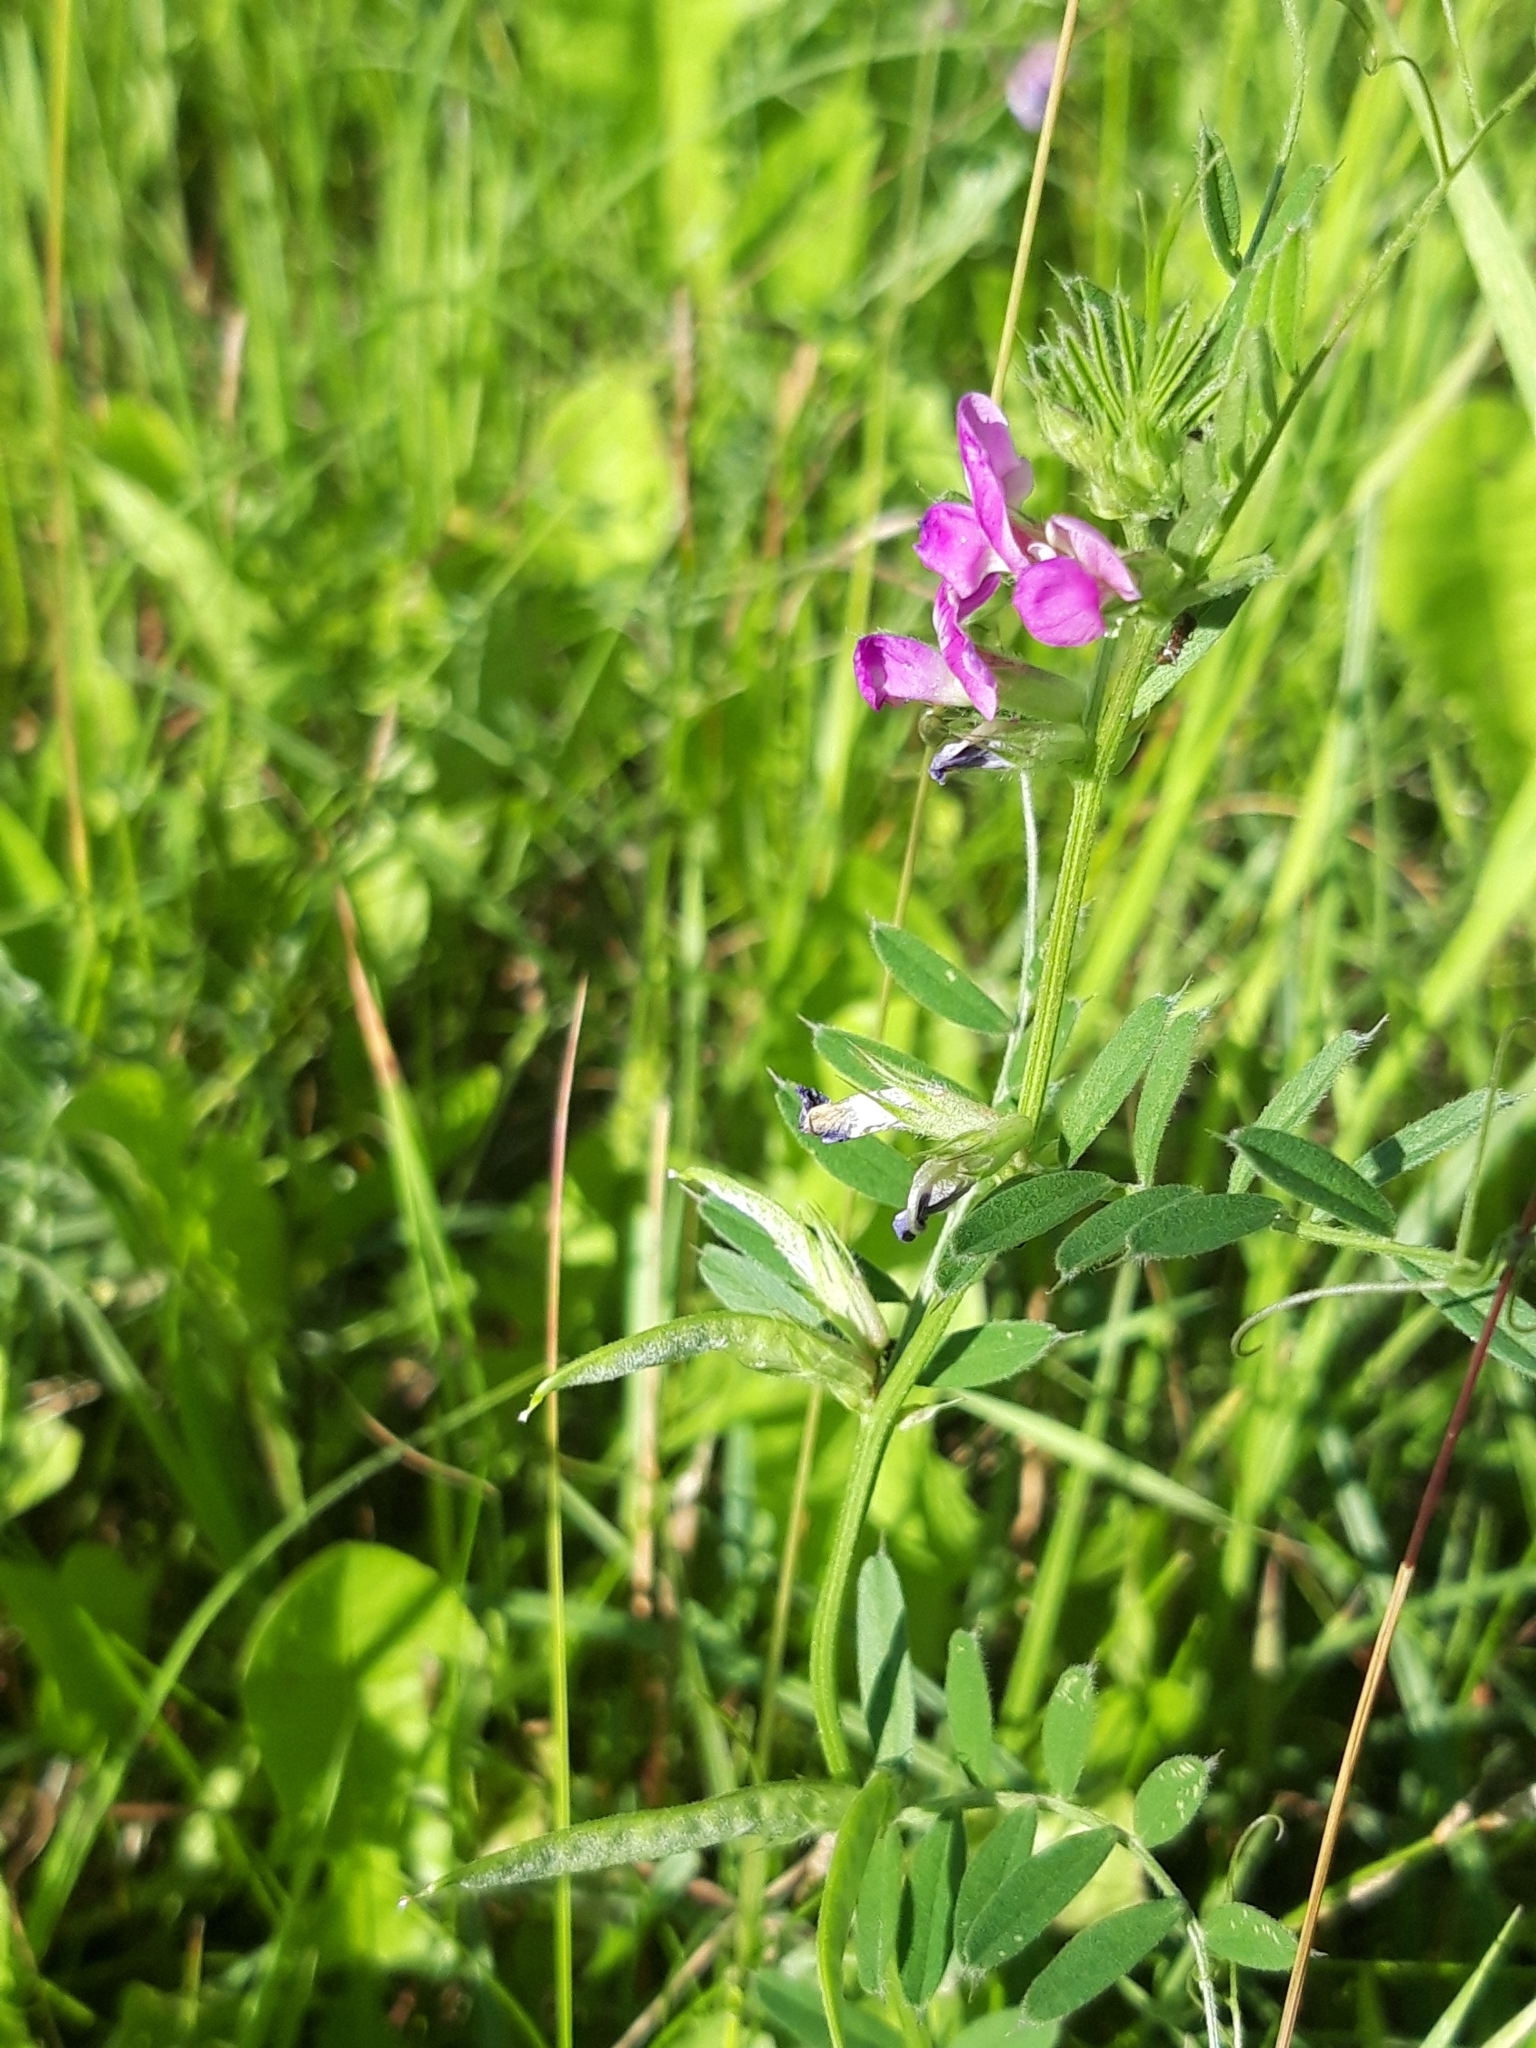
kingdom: Plantae
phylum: Tracheophyta
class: Magnoliopsida
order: Fabales
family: Fabaceae
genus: Vicia
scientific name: Vicia sativa
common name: Garden vetch
